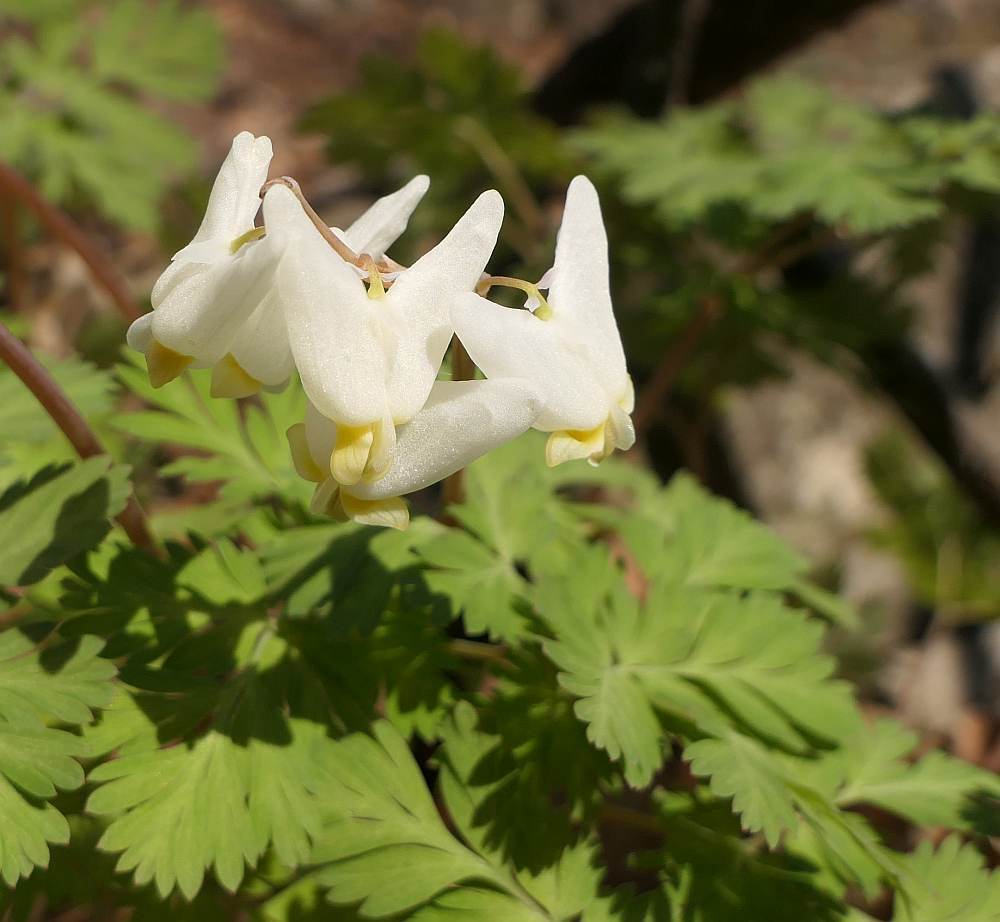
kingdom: Plantae
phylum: Tracheophyta
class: Magnoliopsida
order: Ranunculales
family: Papaveraceae
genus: Dicentra
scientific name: Dicentra cucullaria
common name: Dutchman's breeches
